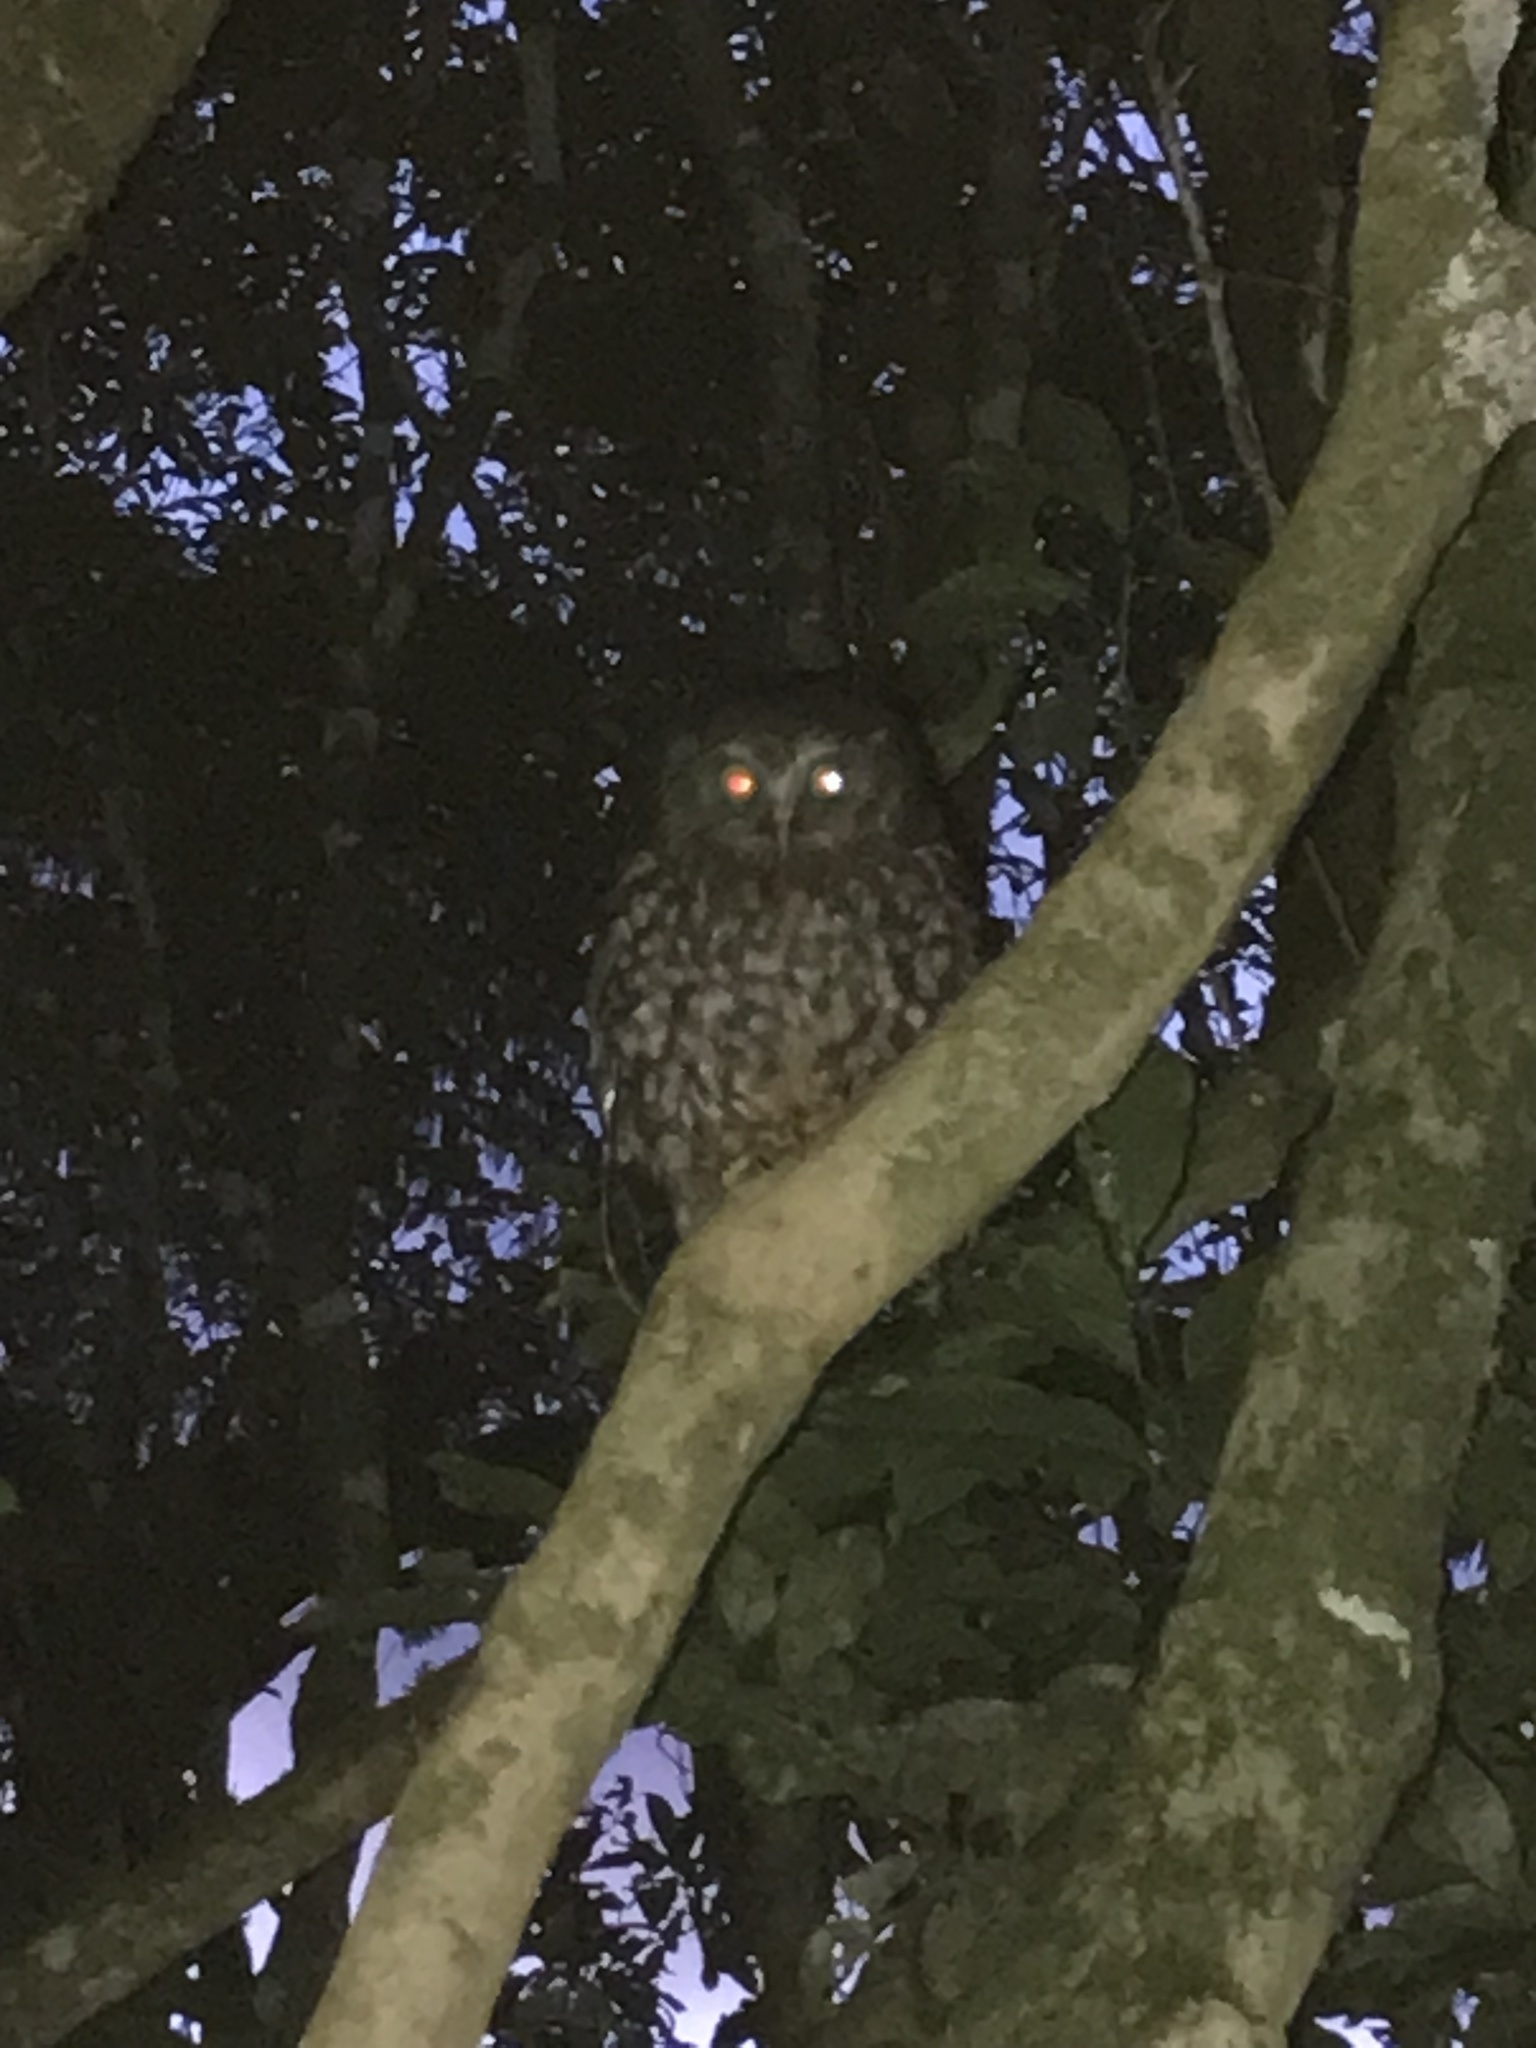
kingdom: Animalia
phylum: Chordata
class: Aves
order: Strigiformes
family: Strigidae
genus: Ninox
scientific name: Ninox novaeseelandiae
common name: Morepork
